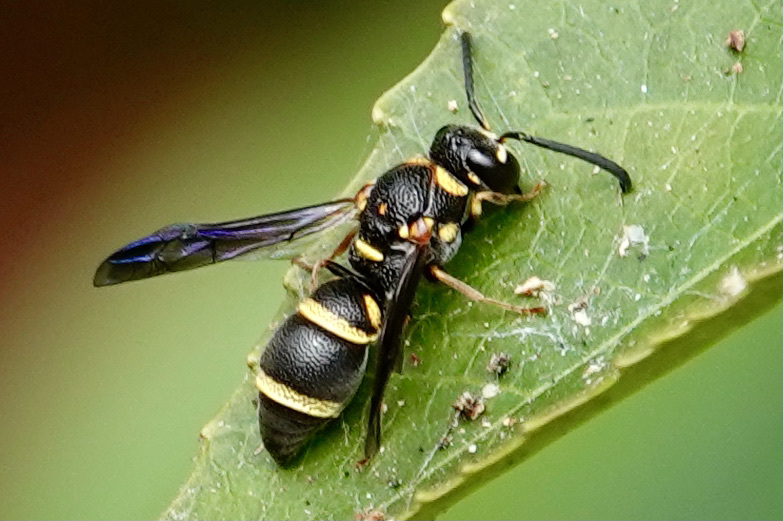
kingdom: Animalia
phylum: Arthropoda
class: Insecta
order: Hymenoptera
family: Eumenidae
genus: Parancistrocerus
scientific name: Parancistrocerus fulvipes
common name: Potter wasp
